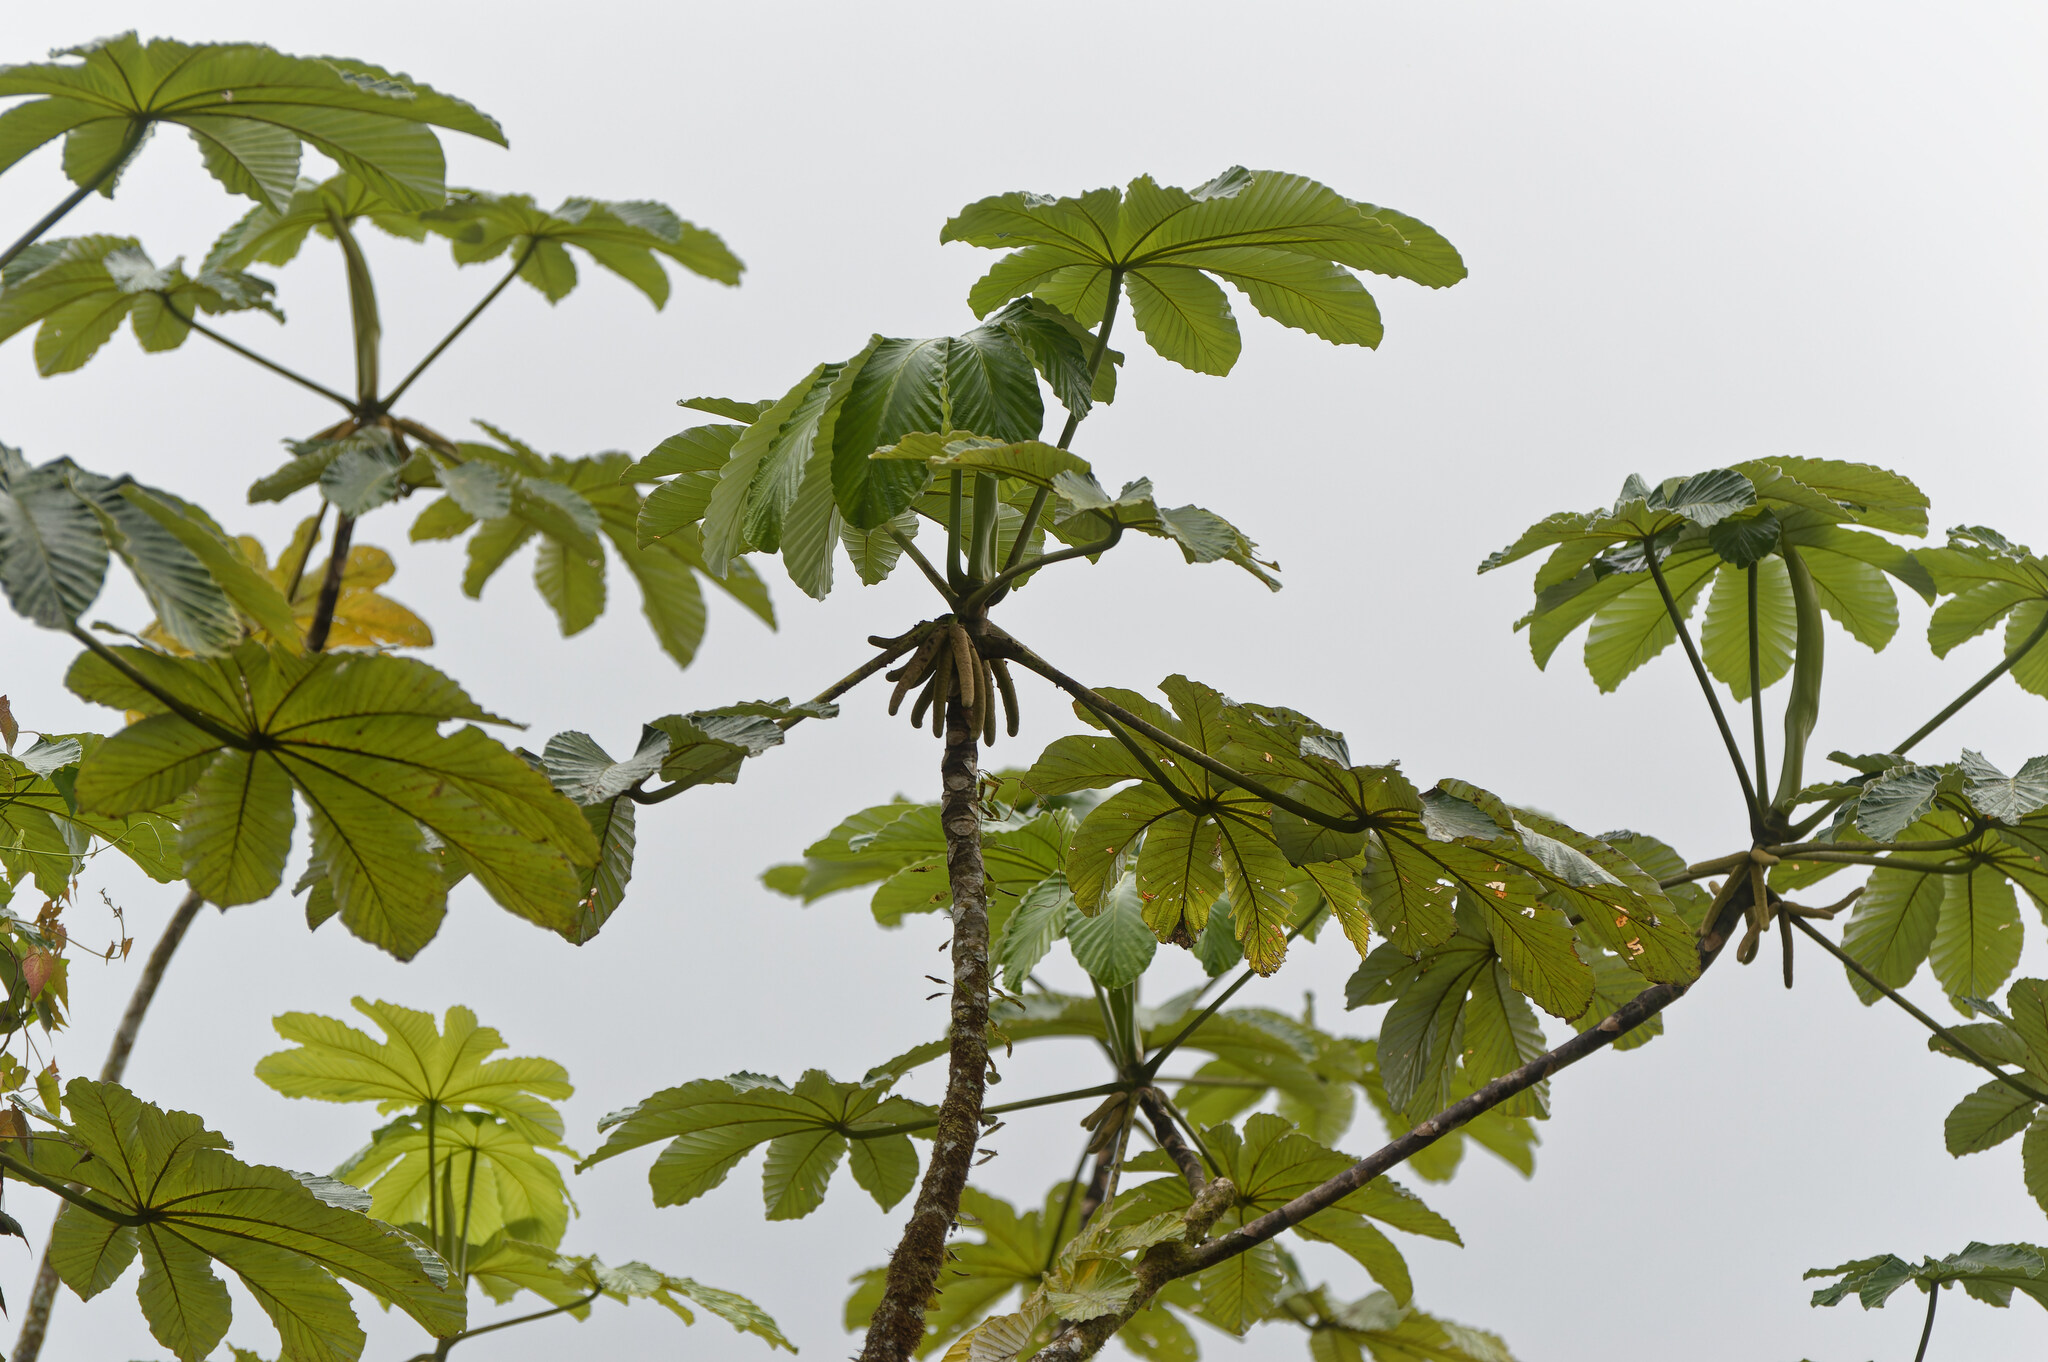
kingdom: Plantae
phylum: Tracheophyta
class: Magnoliopsida
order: Rosales
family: Urticaceae
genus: Cecropia
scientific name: Cecropia schreberiana
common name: Trumpet tree
